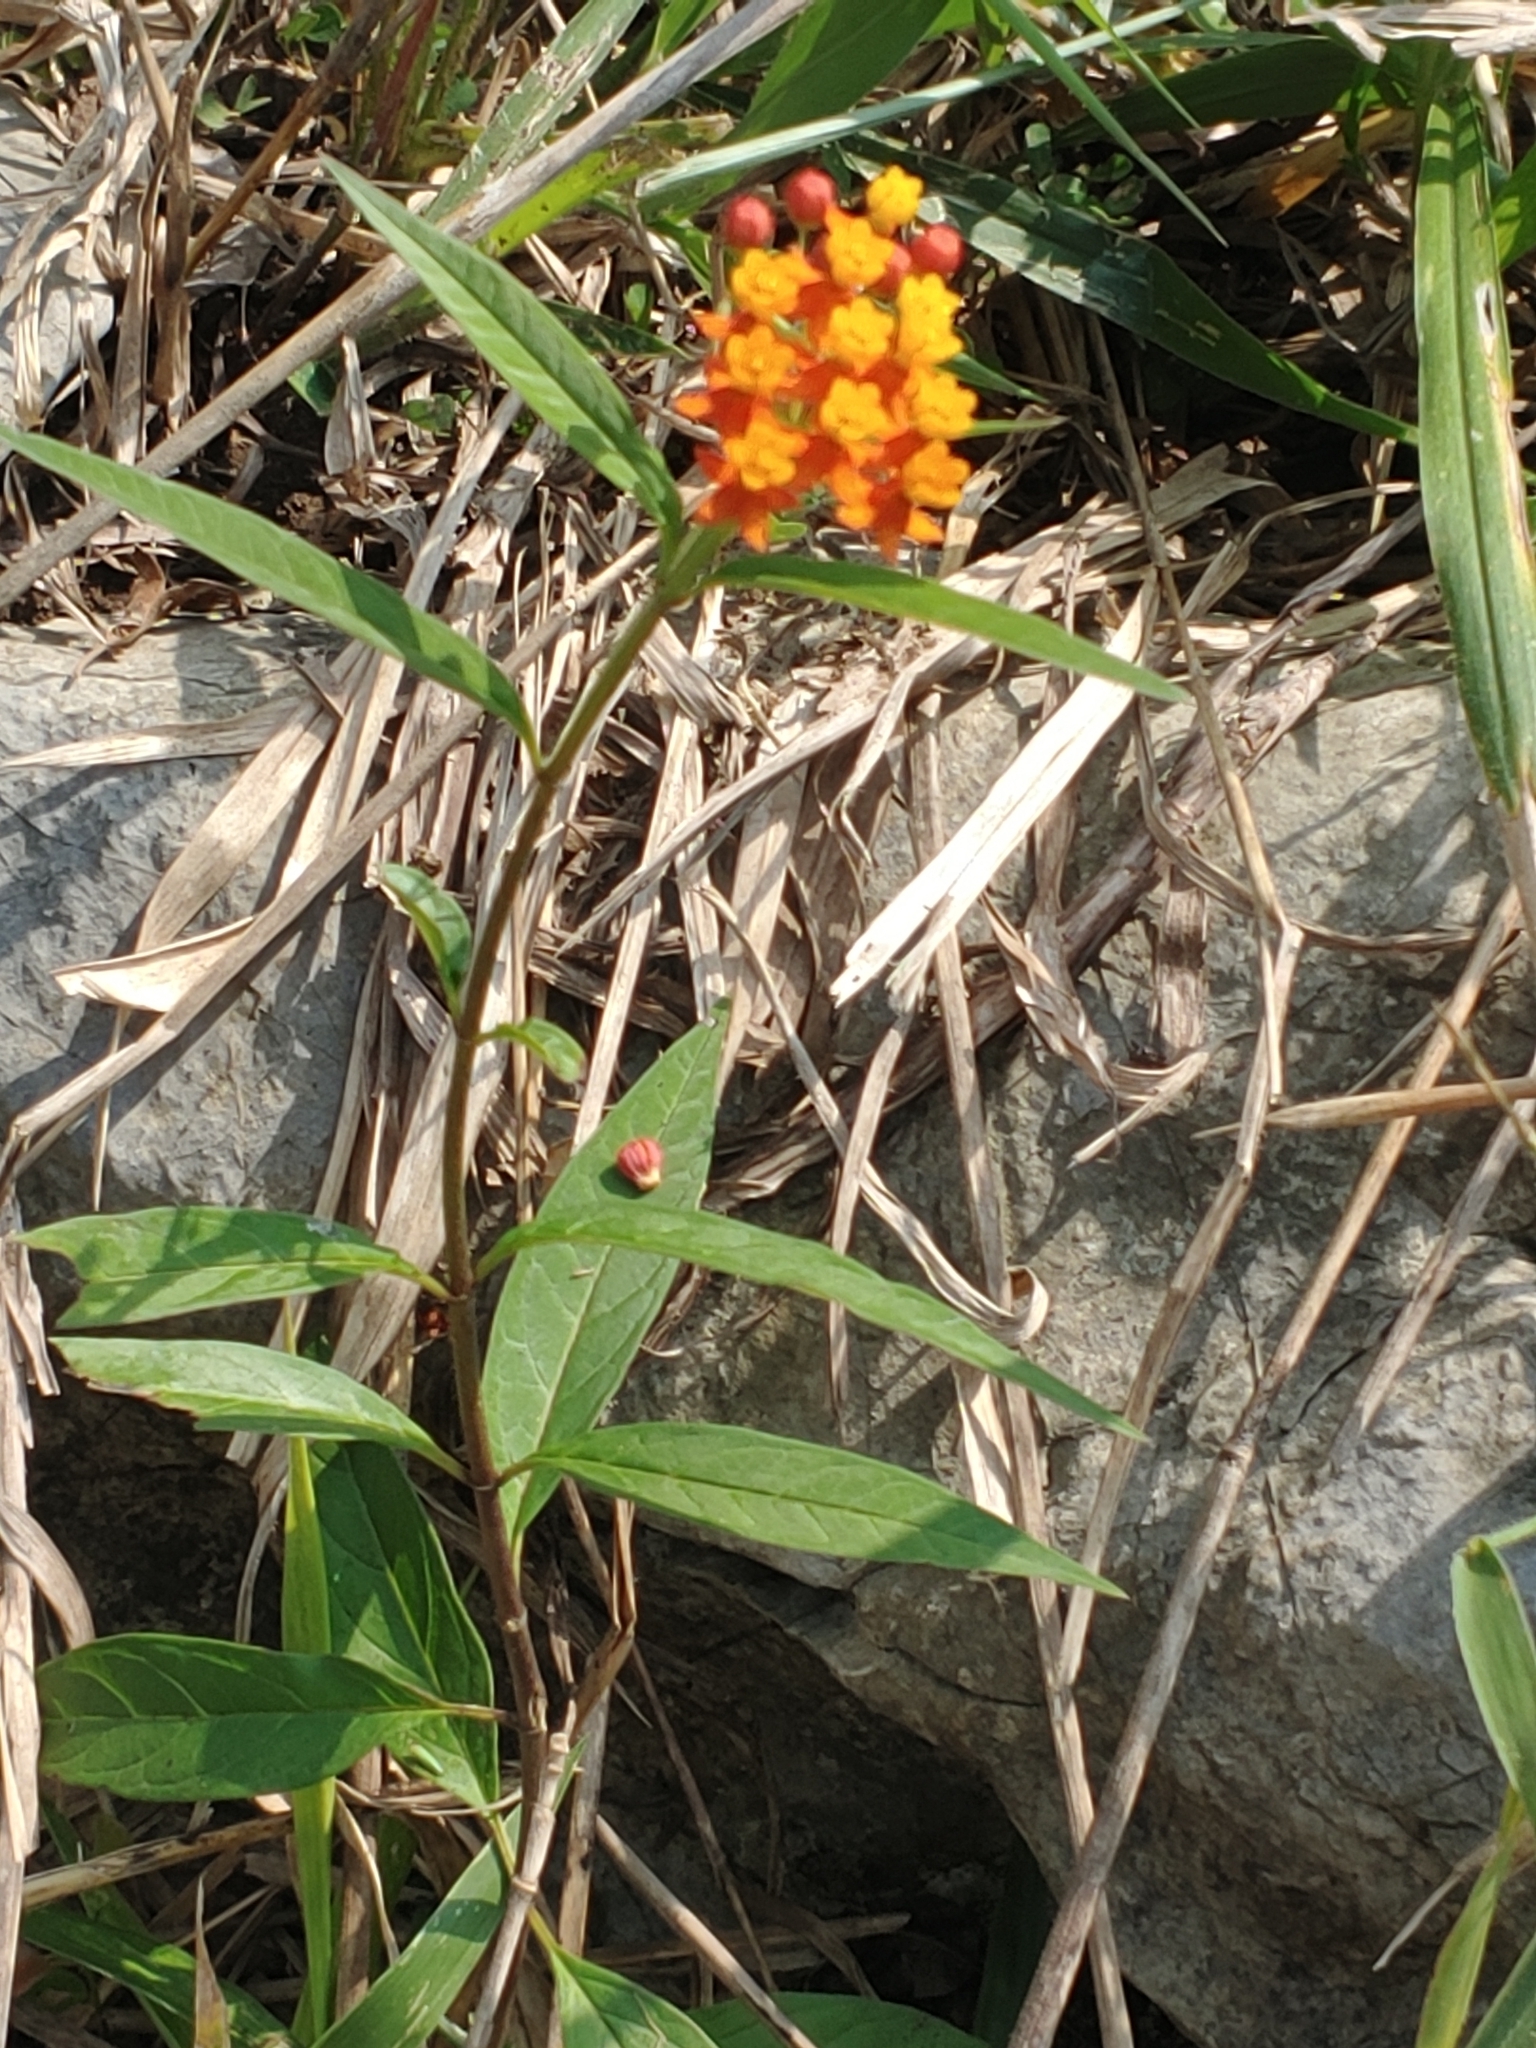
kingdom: Plantae
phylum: Tracheophyta
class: Magnoliopsida
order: Gentianales
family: Apocynaceae
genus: Asclepias
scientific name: Asclepias curassavica
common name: Bloodflower
